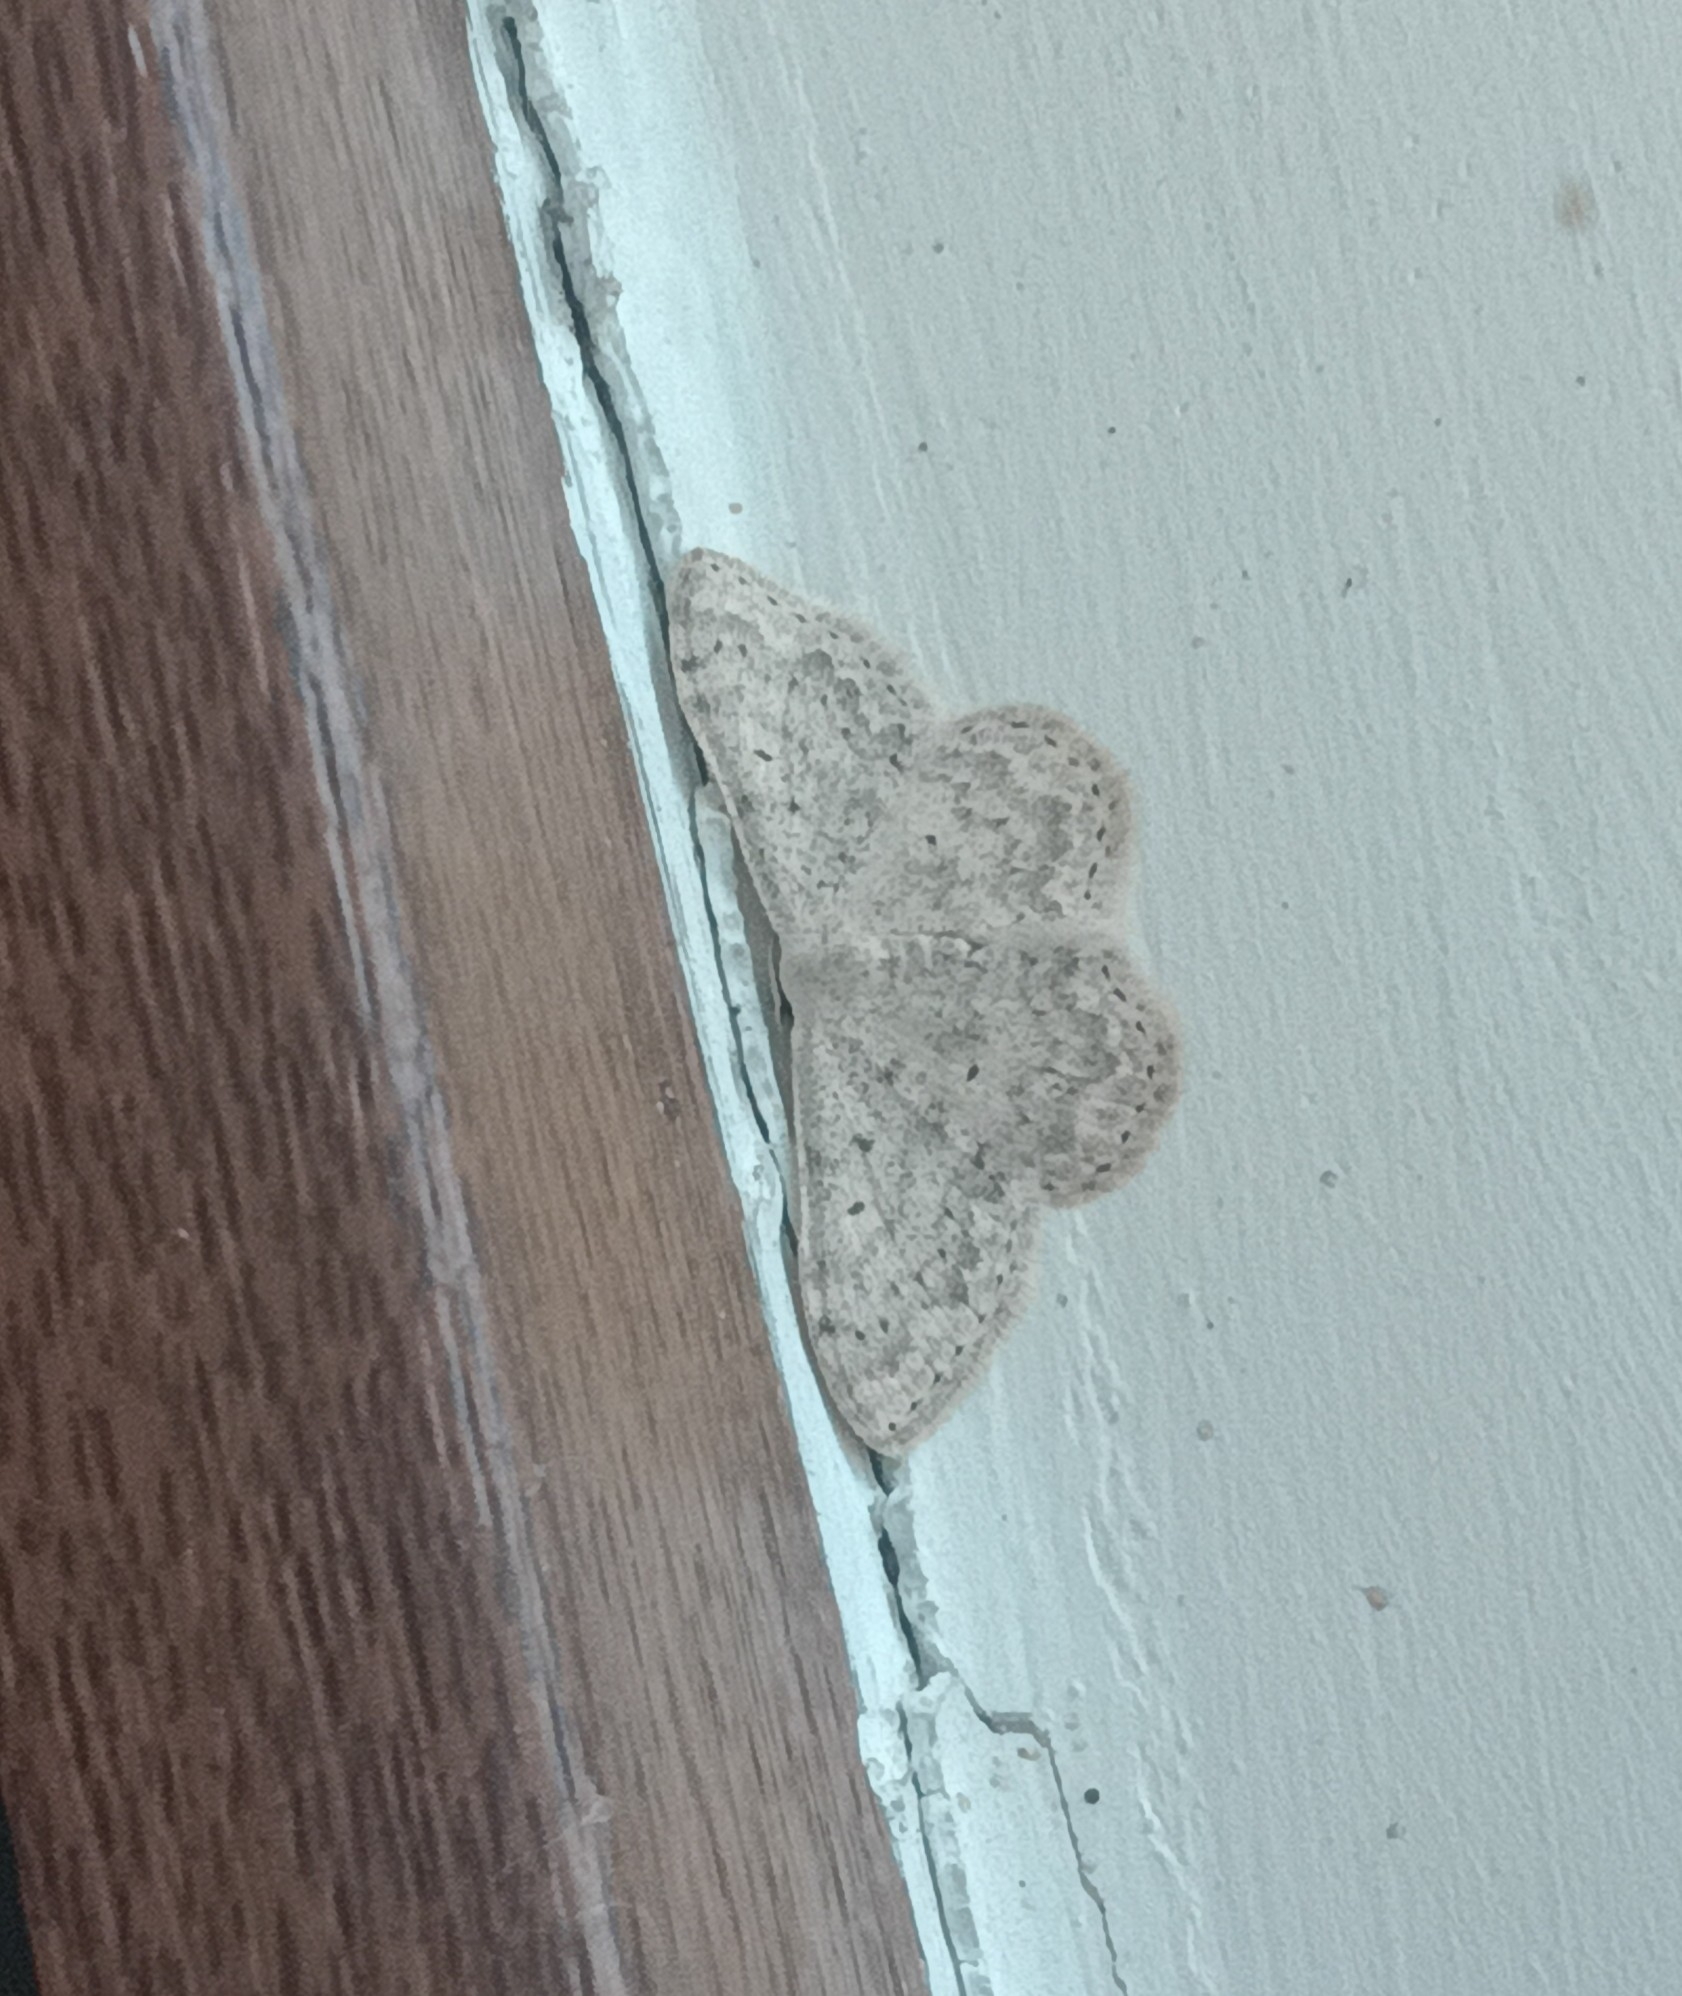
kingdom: Animalia
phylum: Arthropoda
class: Insecta
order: Lepidoptera
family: Geometridae
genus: Scopula
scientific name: Scopula marginepunctata
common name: Mullein wave
